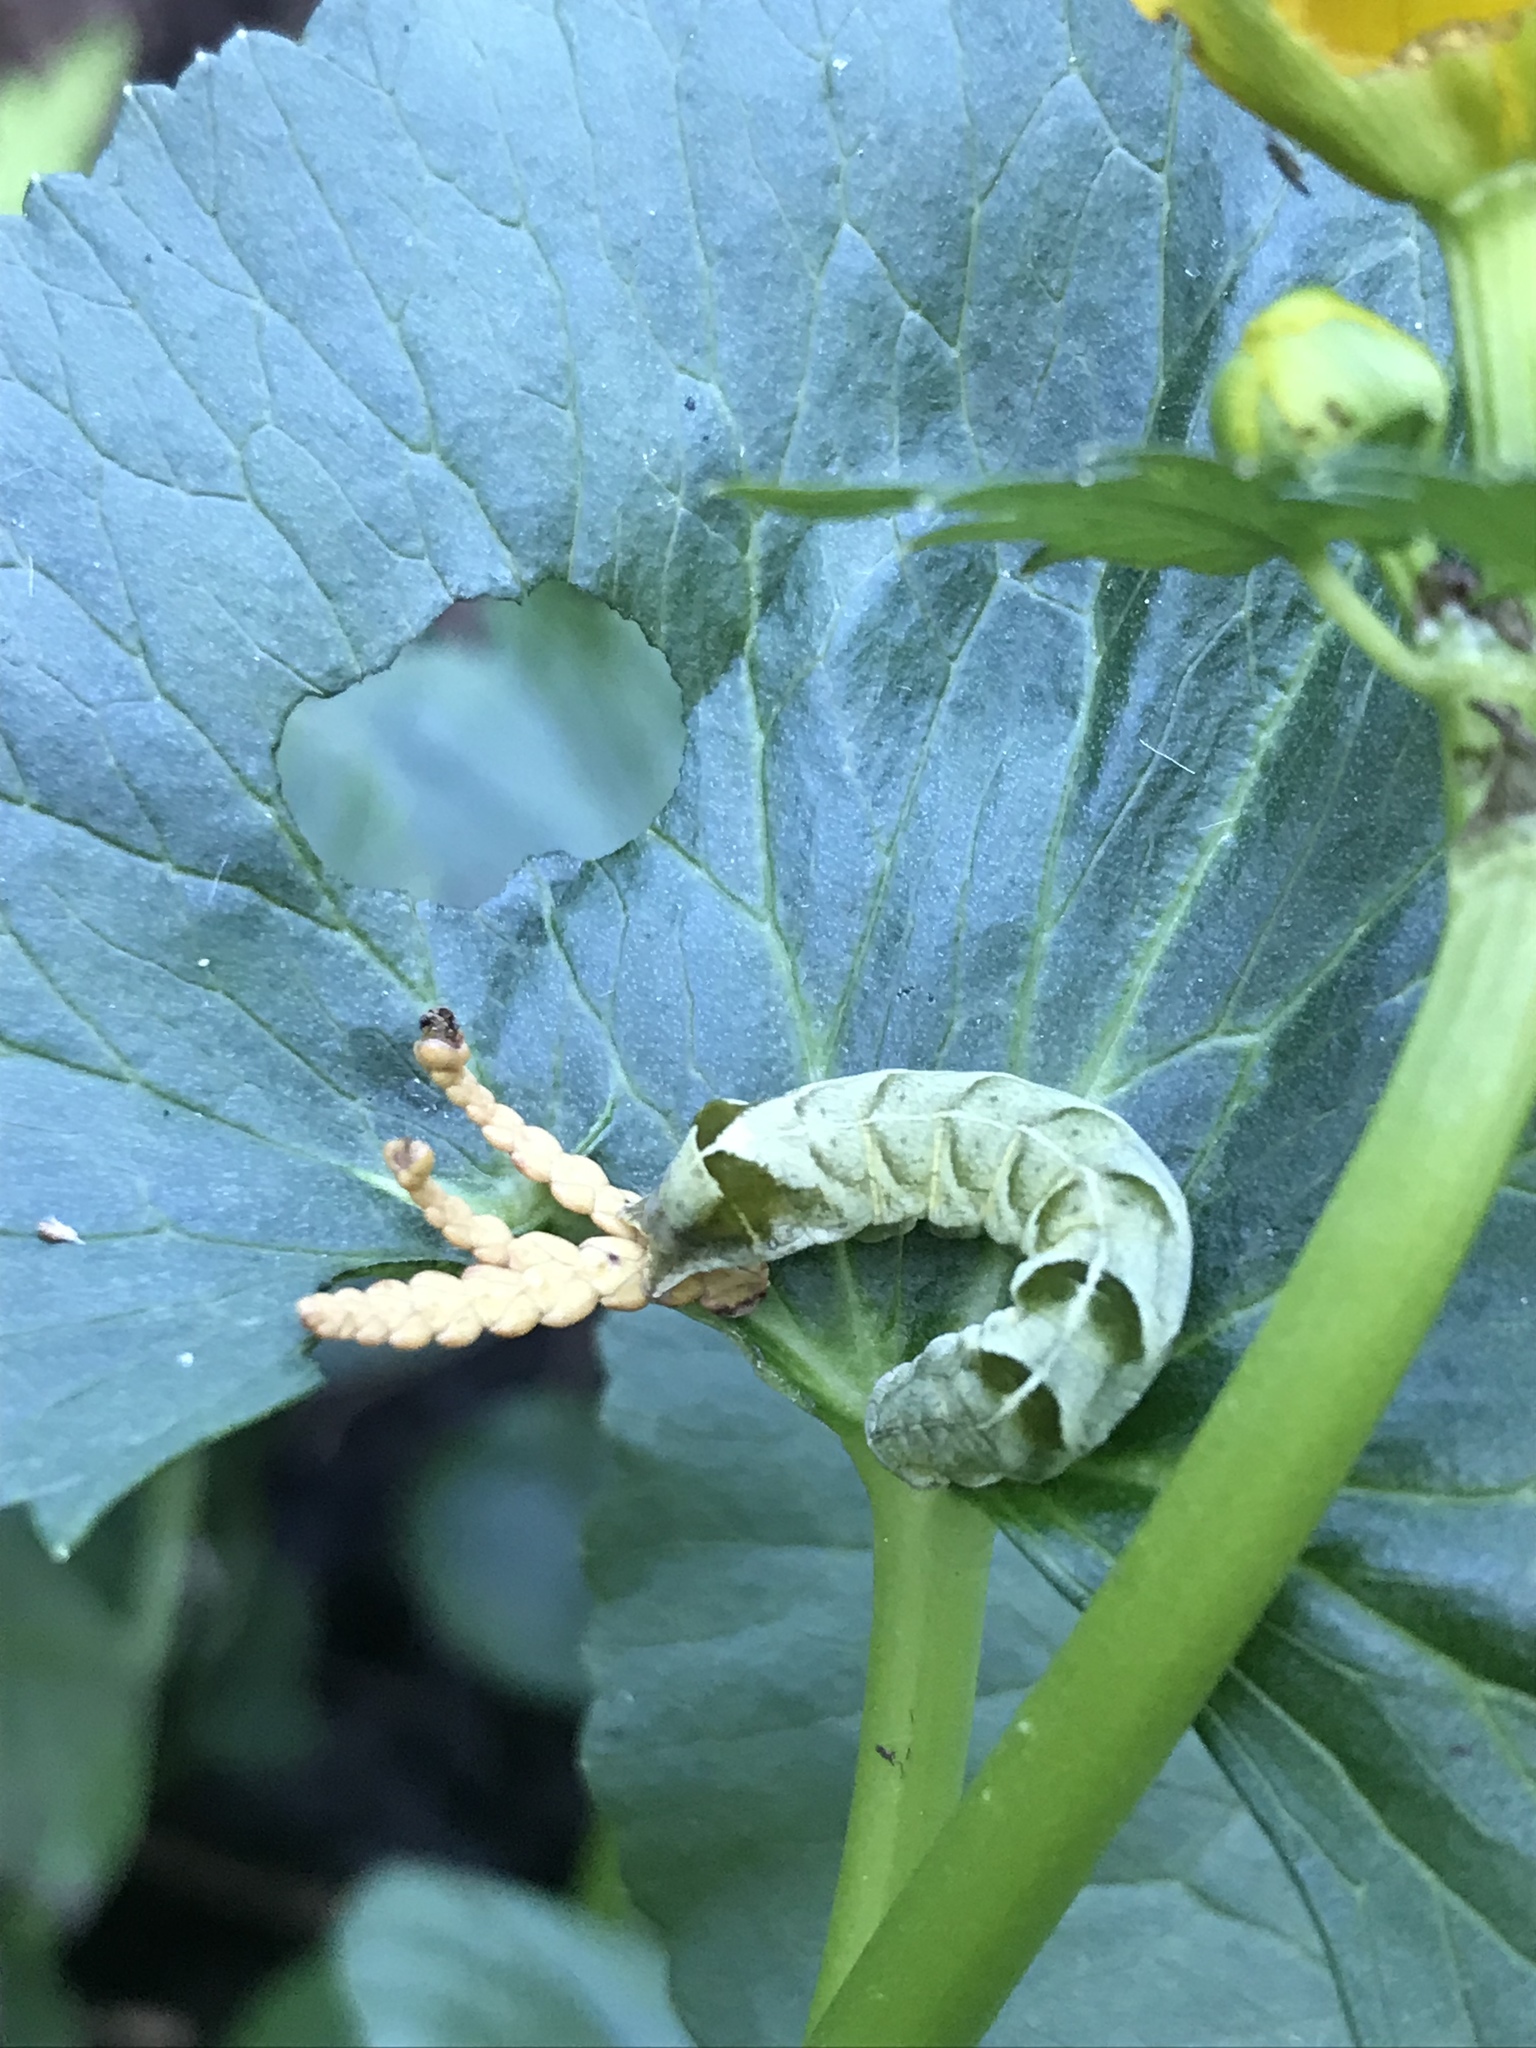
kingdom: Animalia
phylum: Arthropoda
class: Insecta
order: Lepidoptera
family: Noctuidae
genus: Melanchra
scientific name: Melanchra adjuncta
